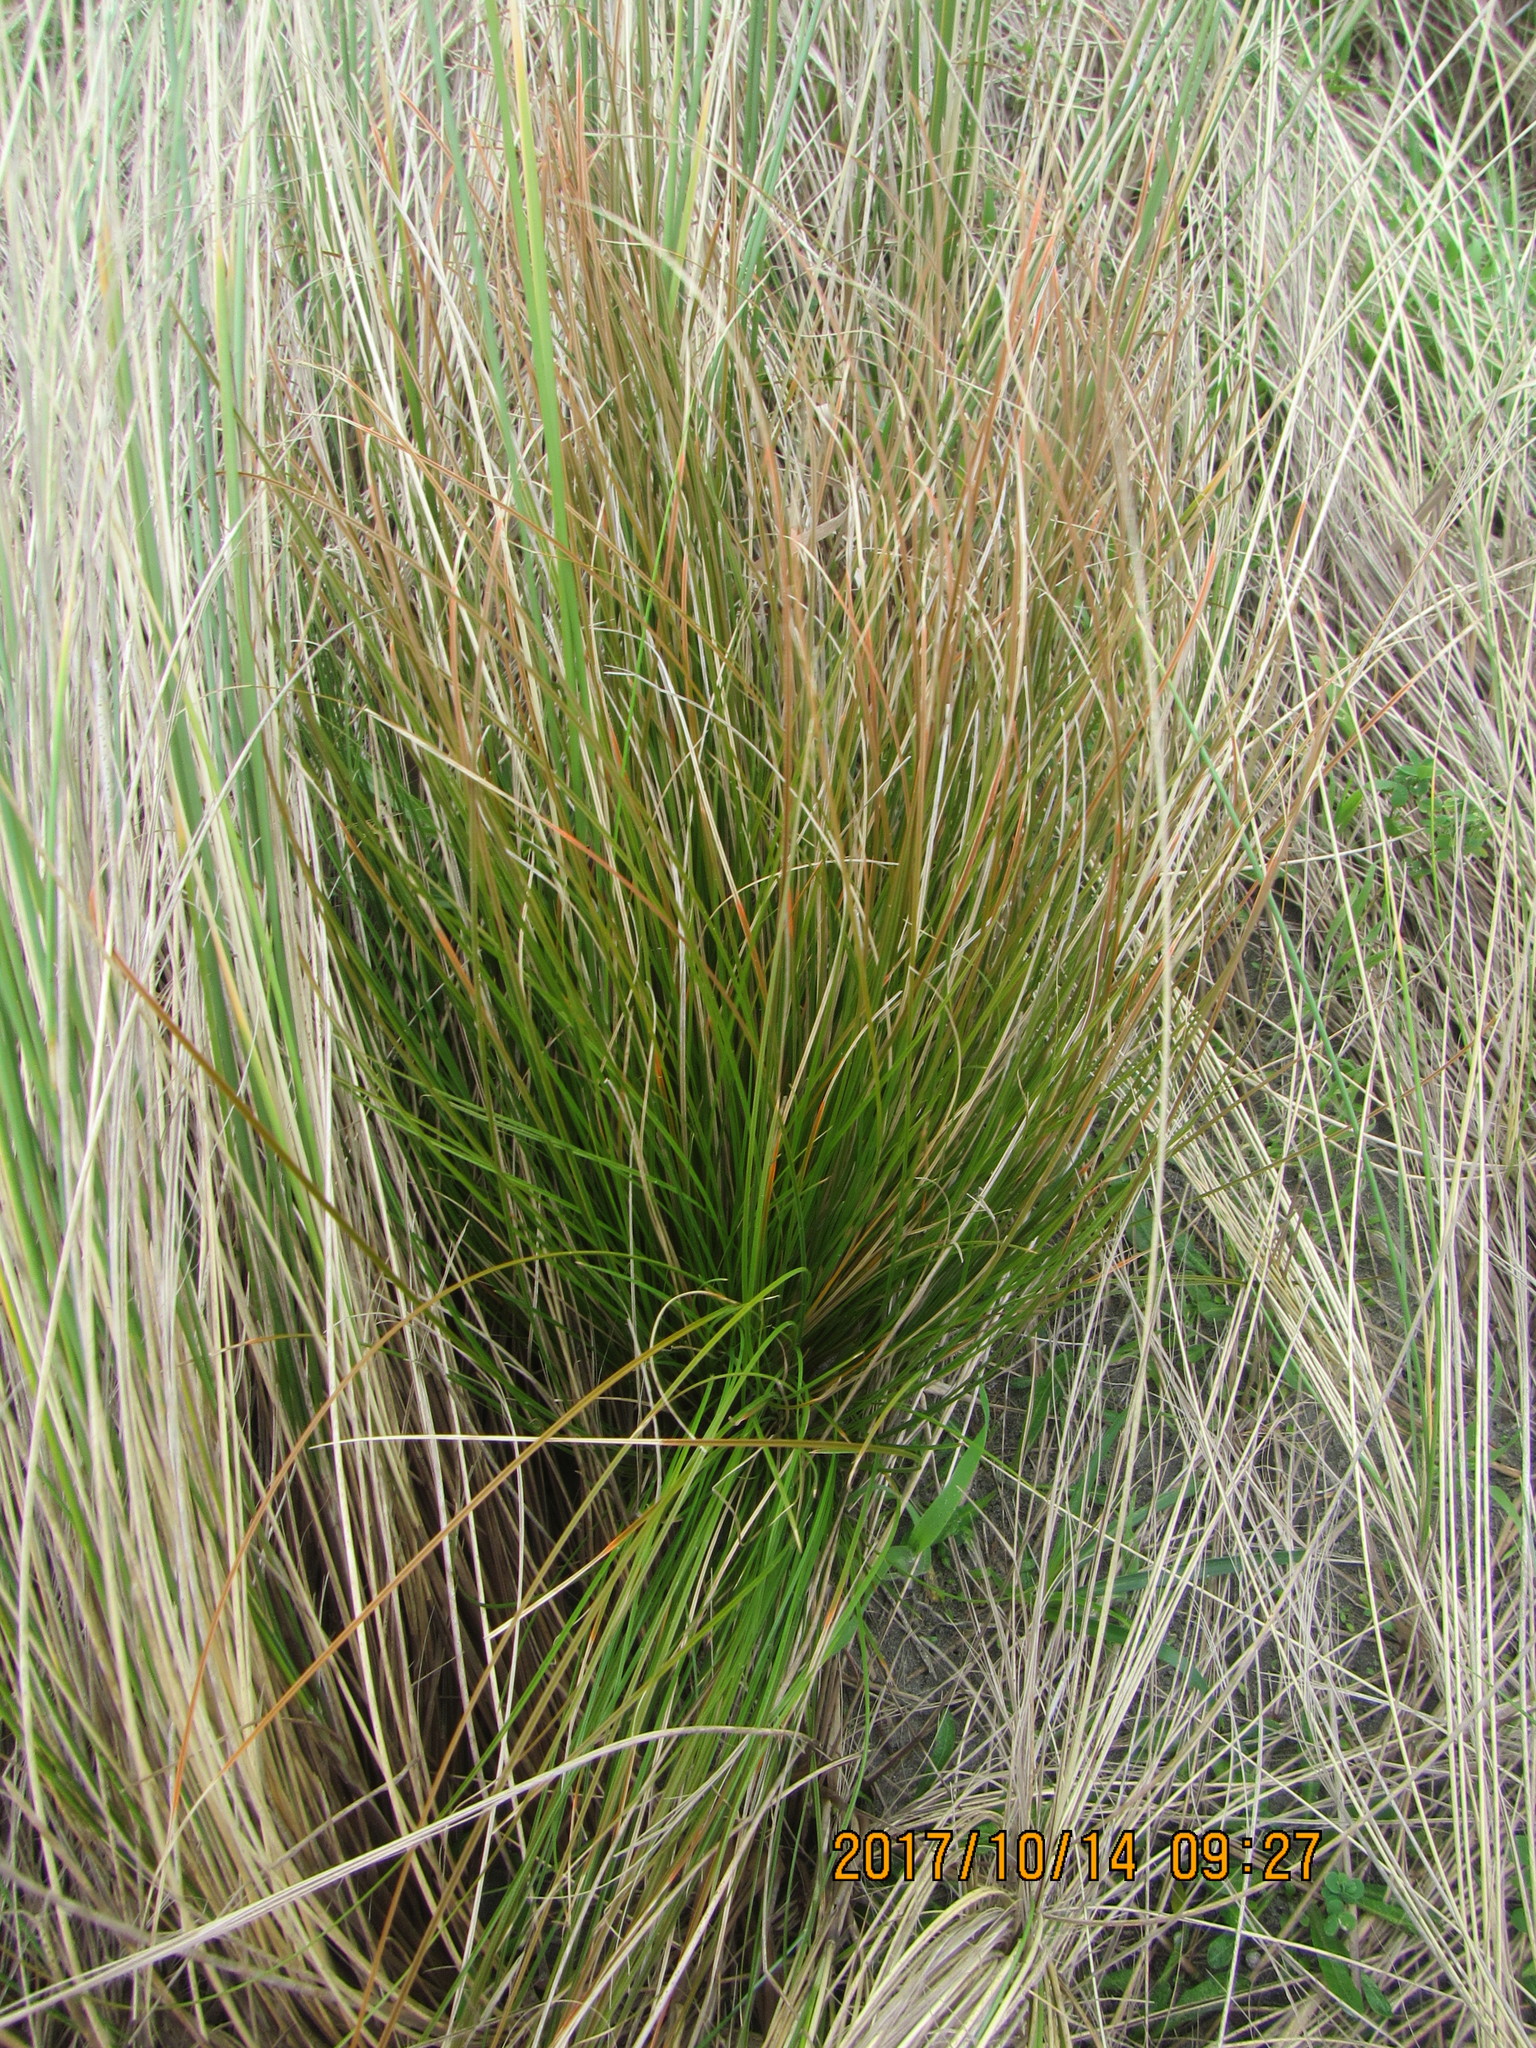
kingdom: Plantae
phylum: Tracheophyta
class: Liliopsida
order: Poales
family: Cyperaceae
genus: Carex
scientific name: Carex testacea
